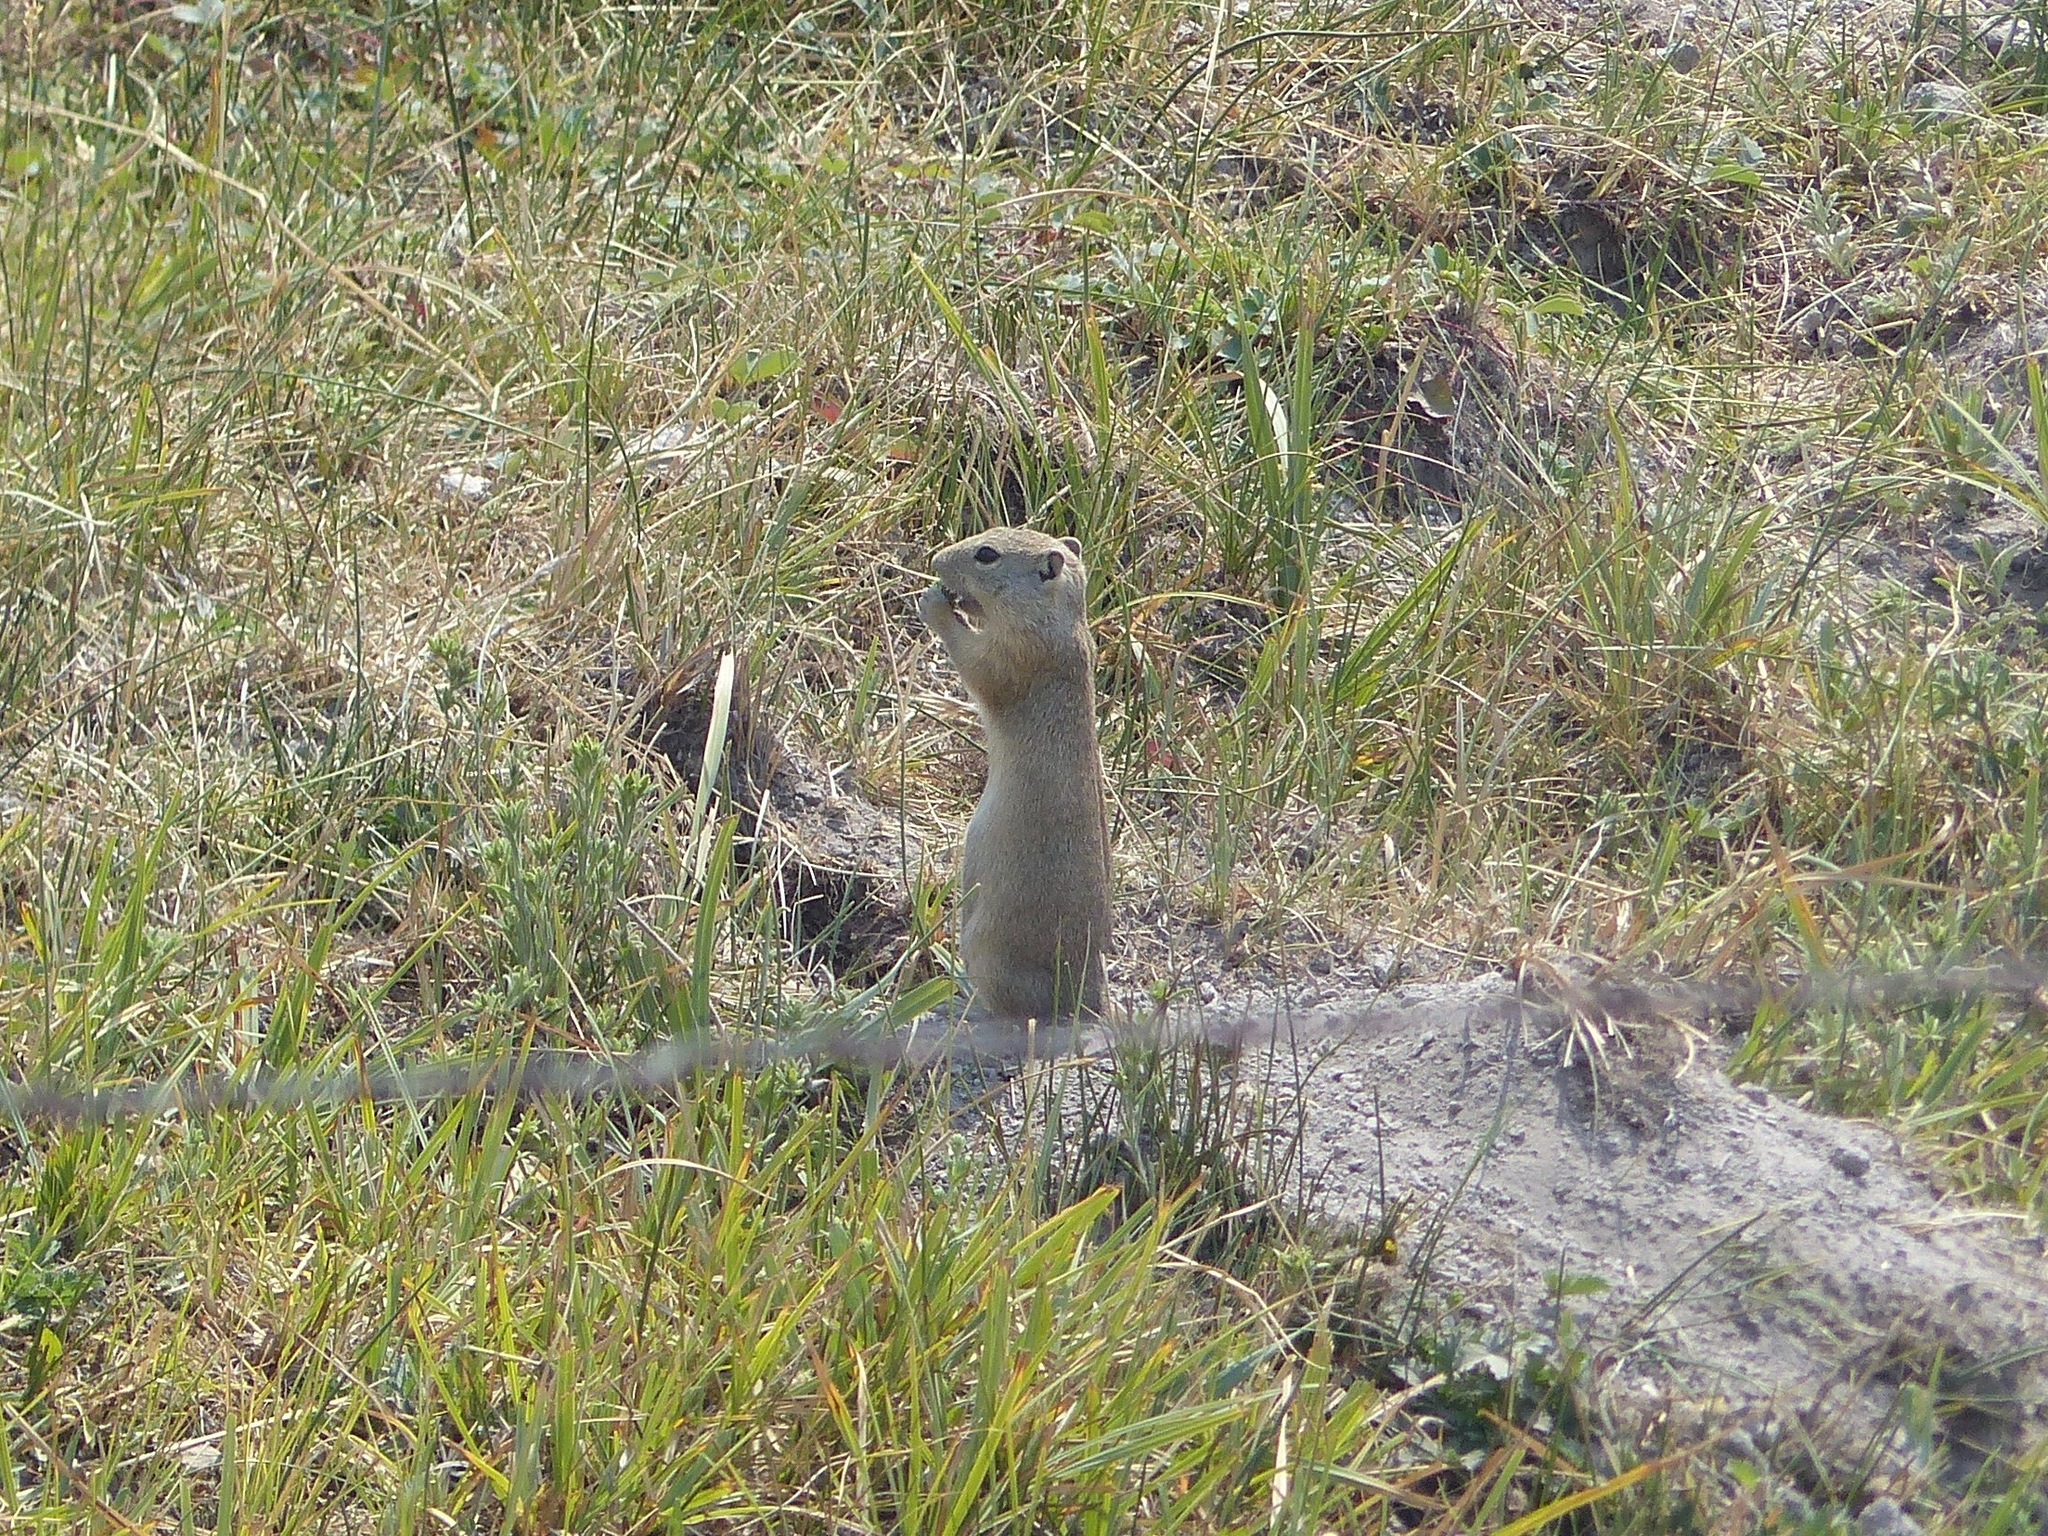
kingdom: Animalia
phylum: Chordata
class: Mammalia
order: Rodentia
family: Sciuridae
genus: Urocitellus
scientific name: Urocitellus beldingi
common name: Belding's ground squirrel
